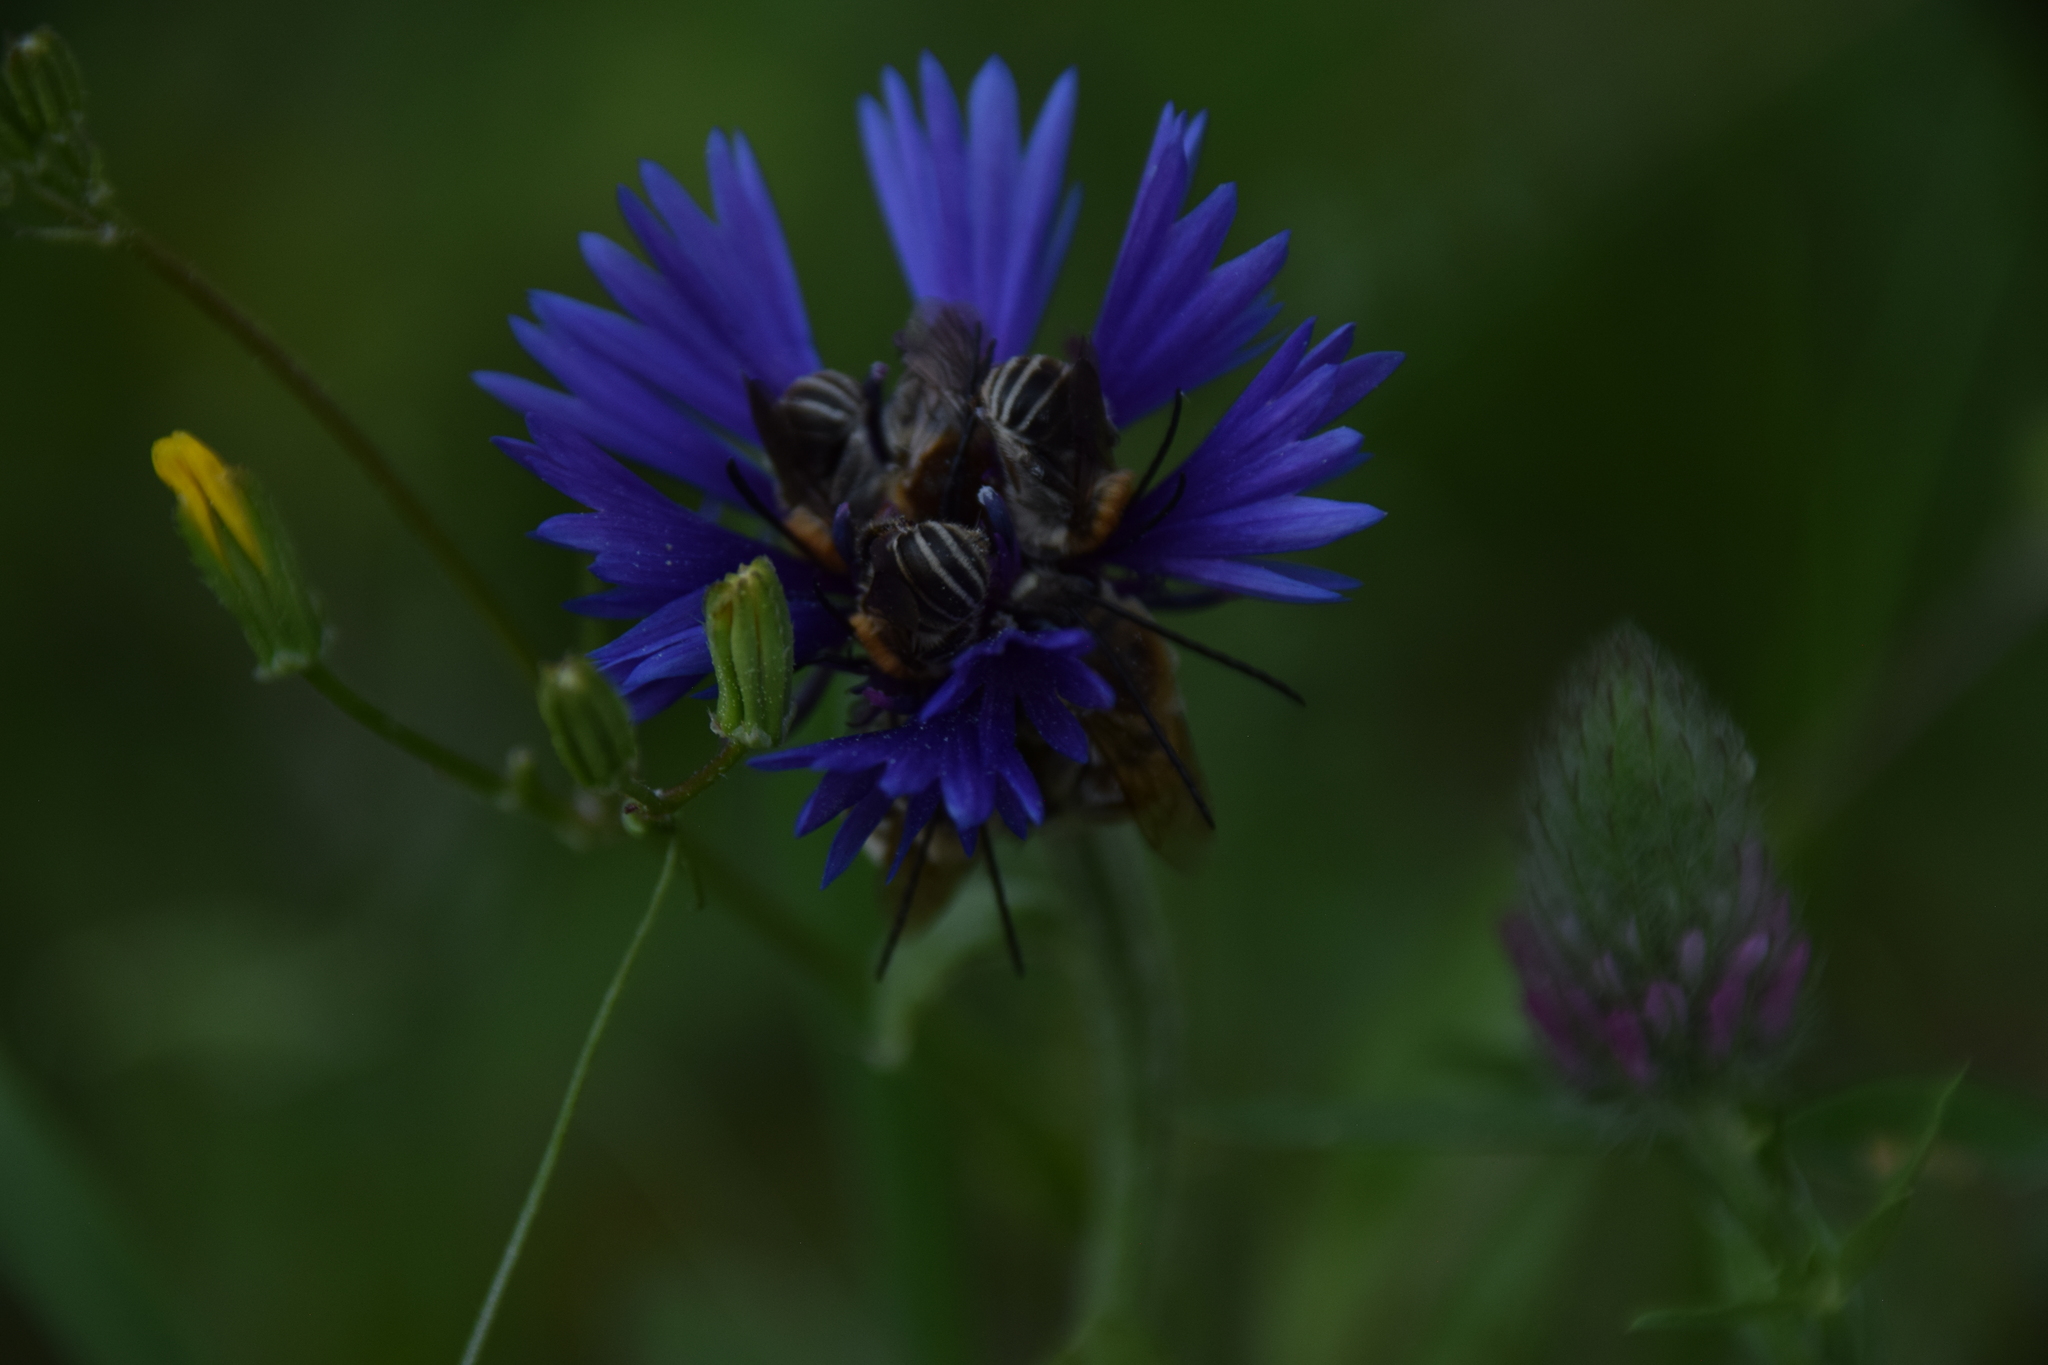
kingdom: Plantae
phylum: Tracheophyta
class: Magnoliopsida
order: Asterales
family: Asteraceae
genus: Centaurea
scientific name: Centaurea cyanoides
